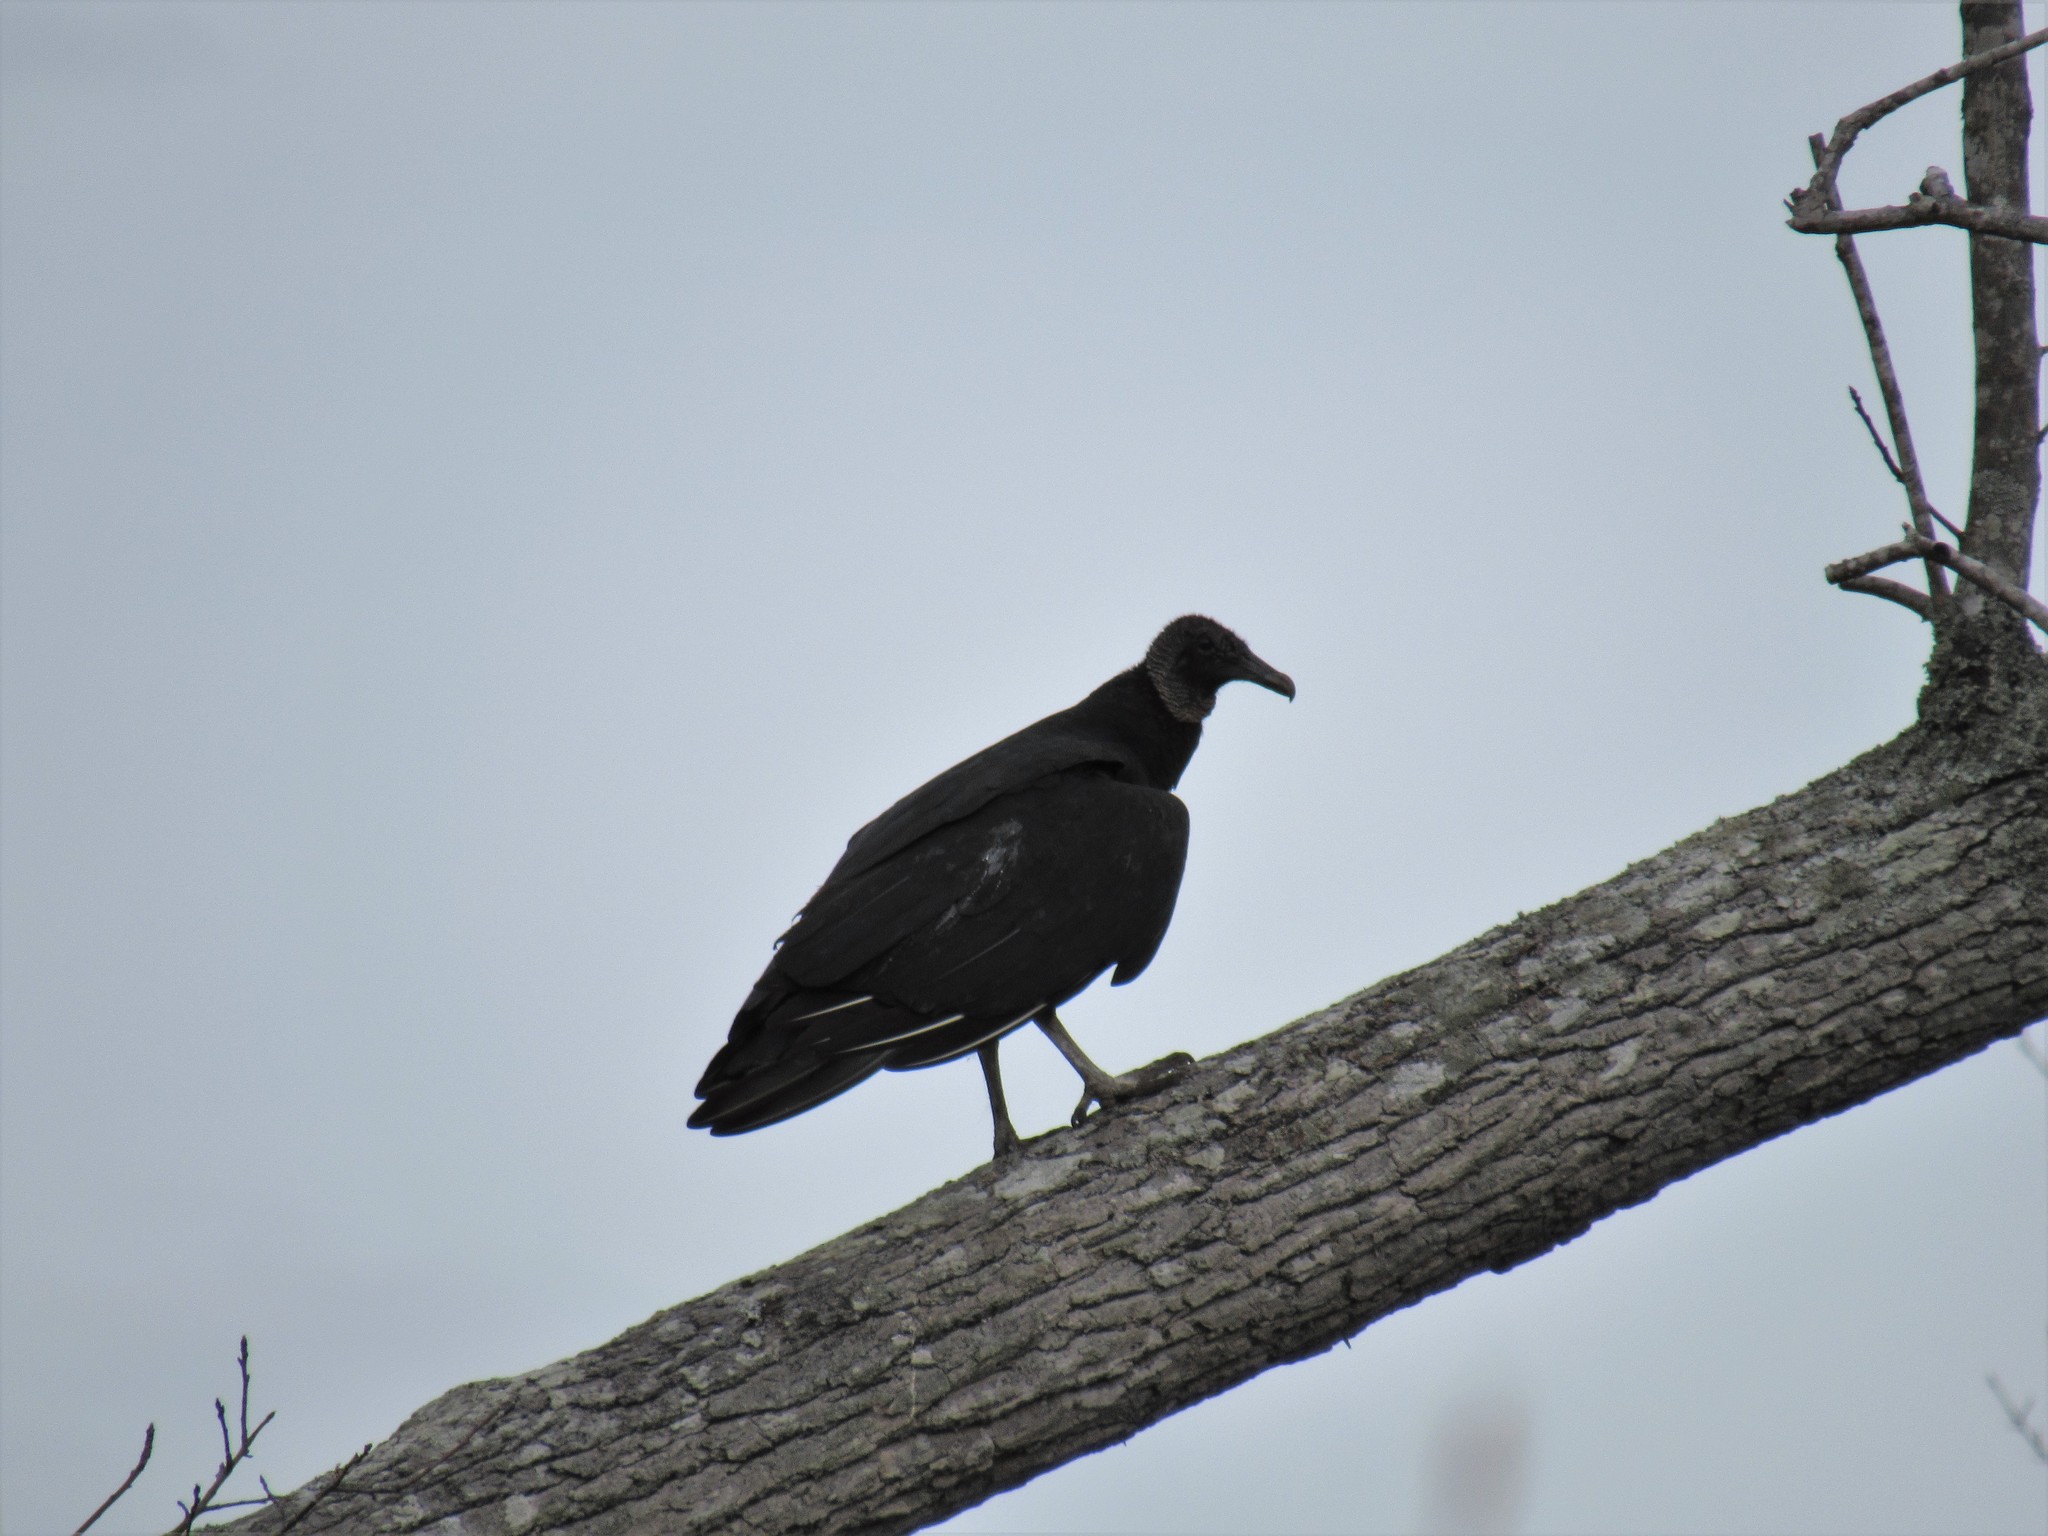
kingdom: Animalia
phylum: Chordata
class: Aves
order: Accipitriformes
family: Cathartidae
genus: Coragyps
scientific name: Coragyps atratus
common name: Black vulture
